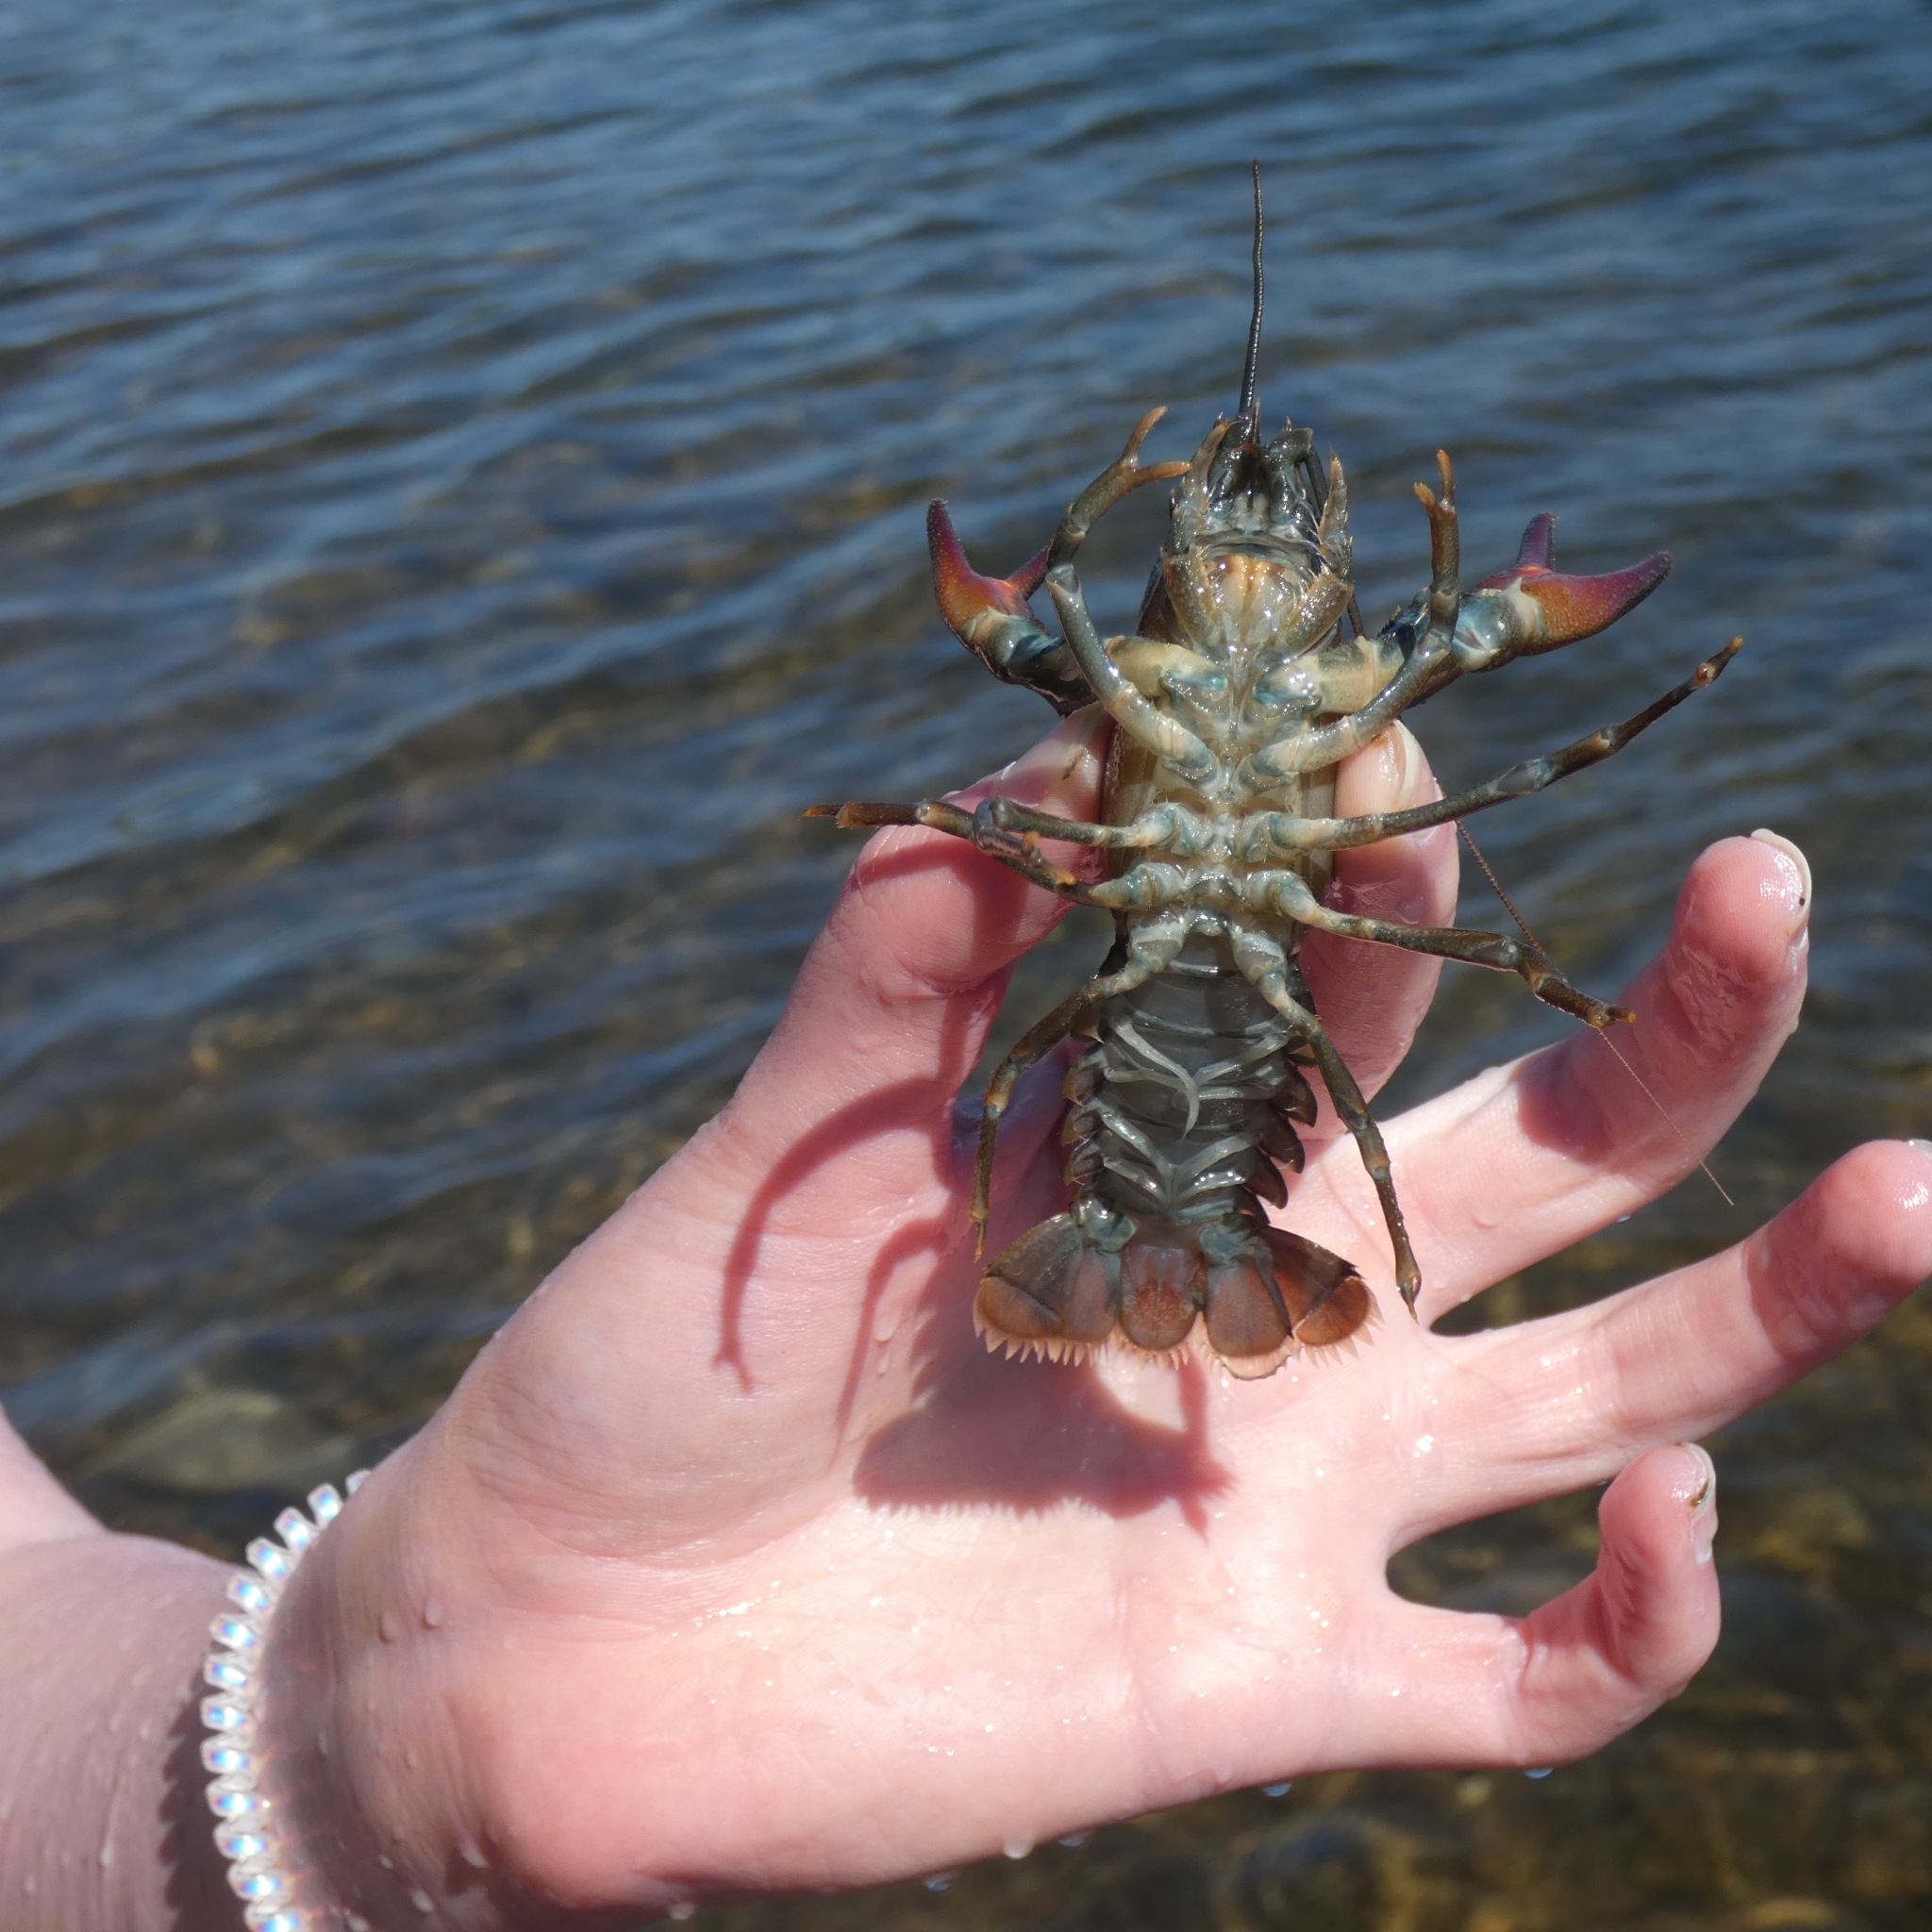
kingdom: Animalia
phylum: Arthropoda
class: Malacostraca
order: Decapoda
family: Astacidae
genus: Pacifastacus
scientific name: Pacifastacus leniusculus
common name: Signal crayfish
